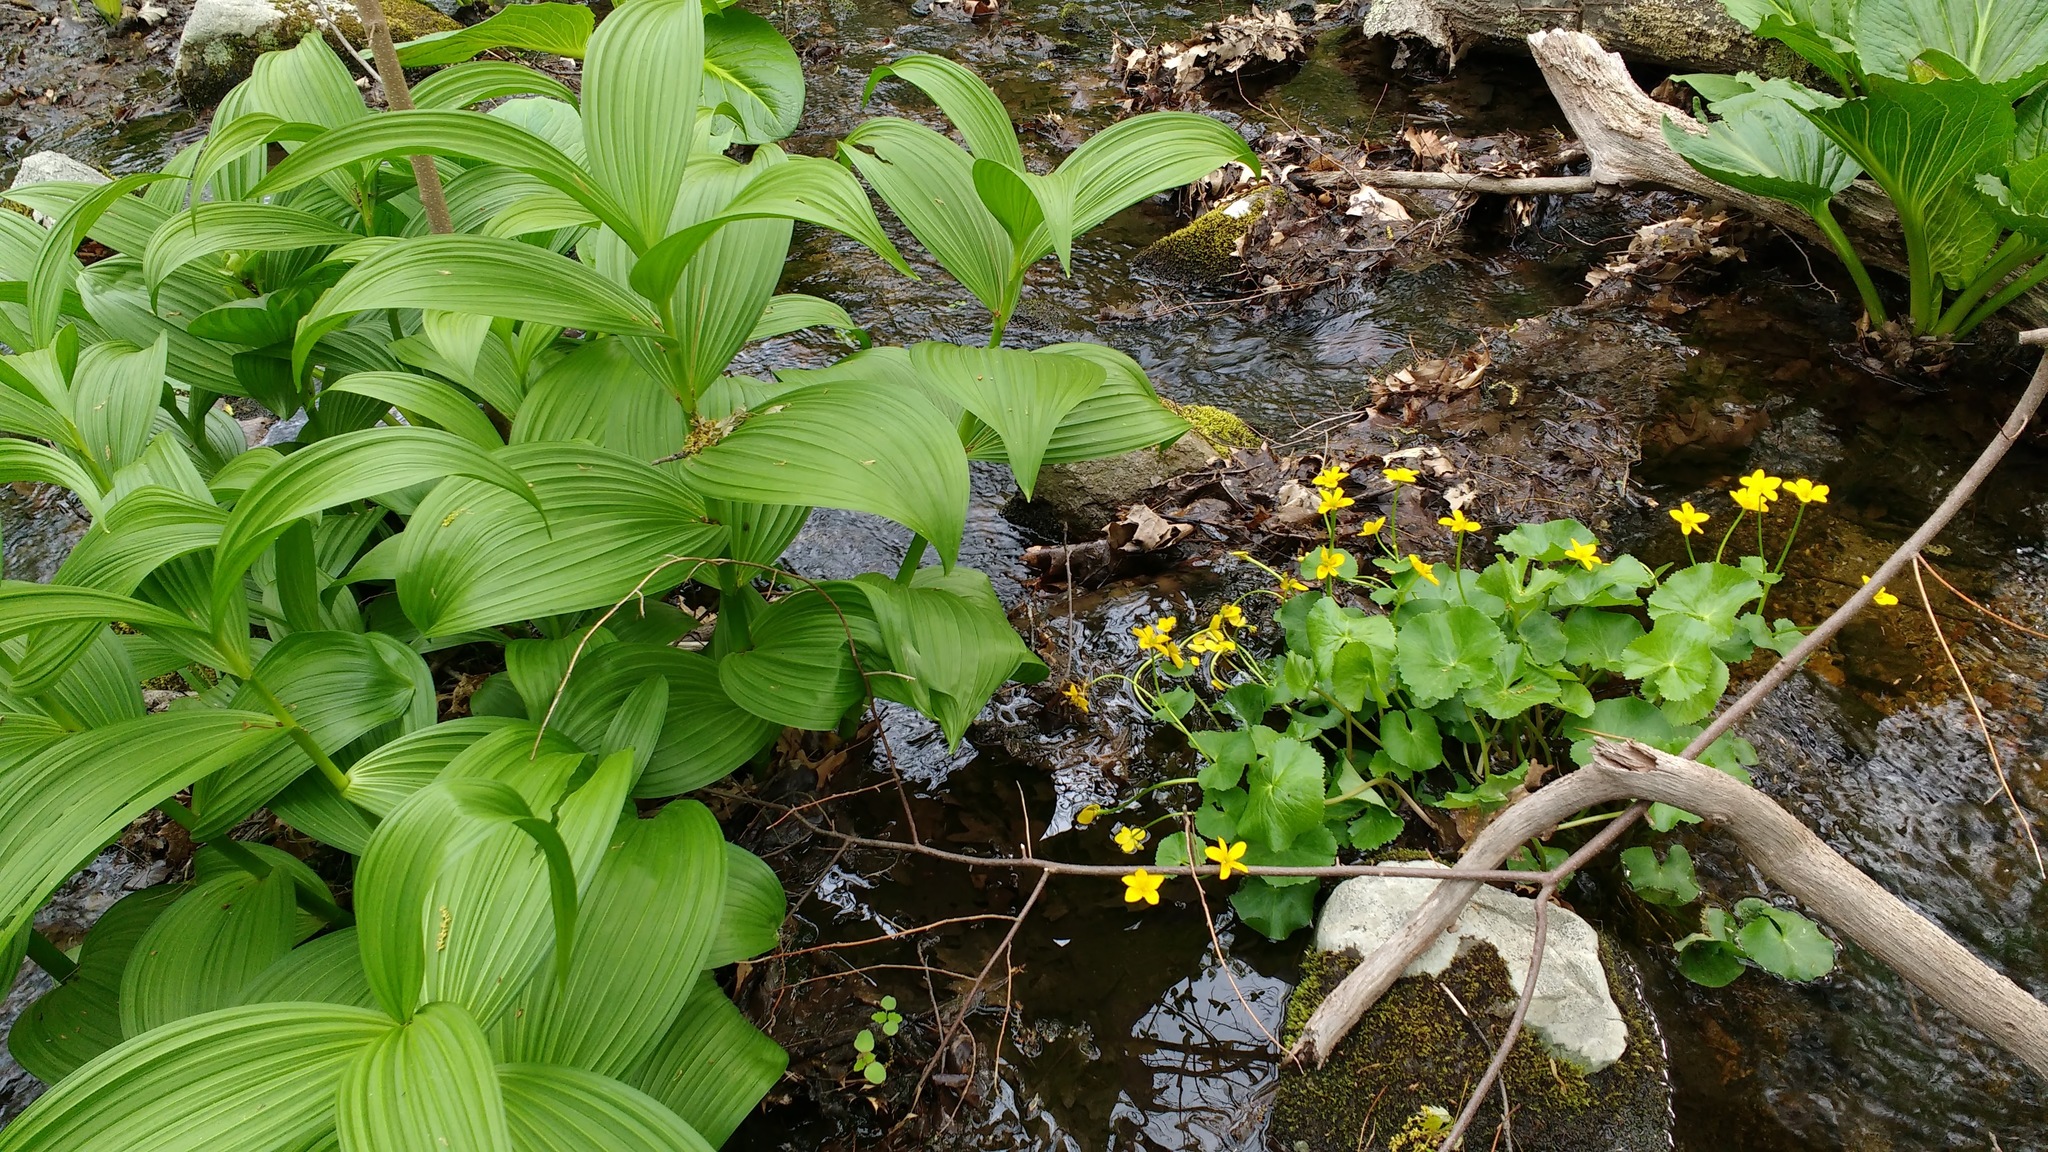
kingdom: Plantae
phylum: Tracheophyta
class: Liliopsida
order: Liliales
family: Melanthiaceae
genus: Veratrum
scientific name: Veratrum viride
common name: American false hellebore
